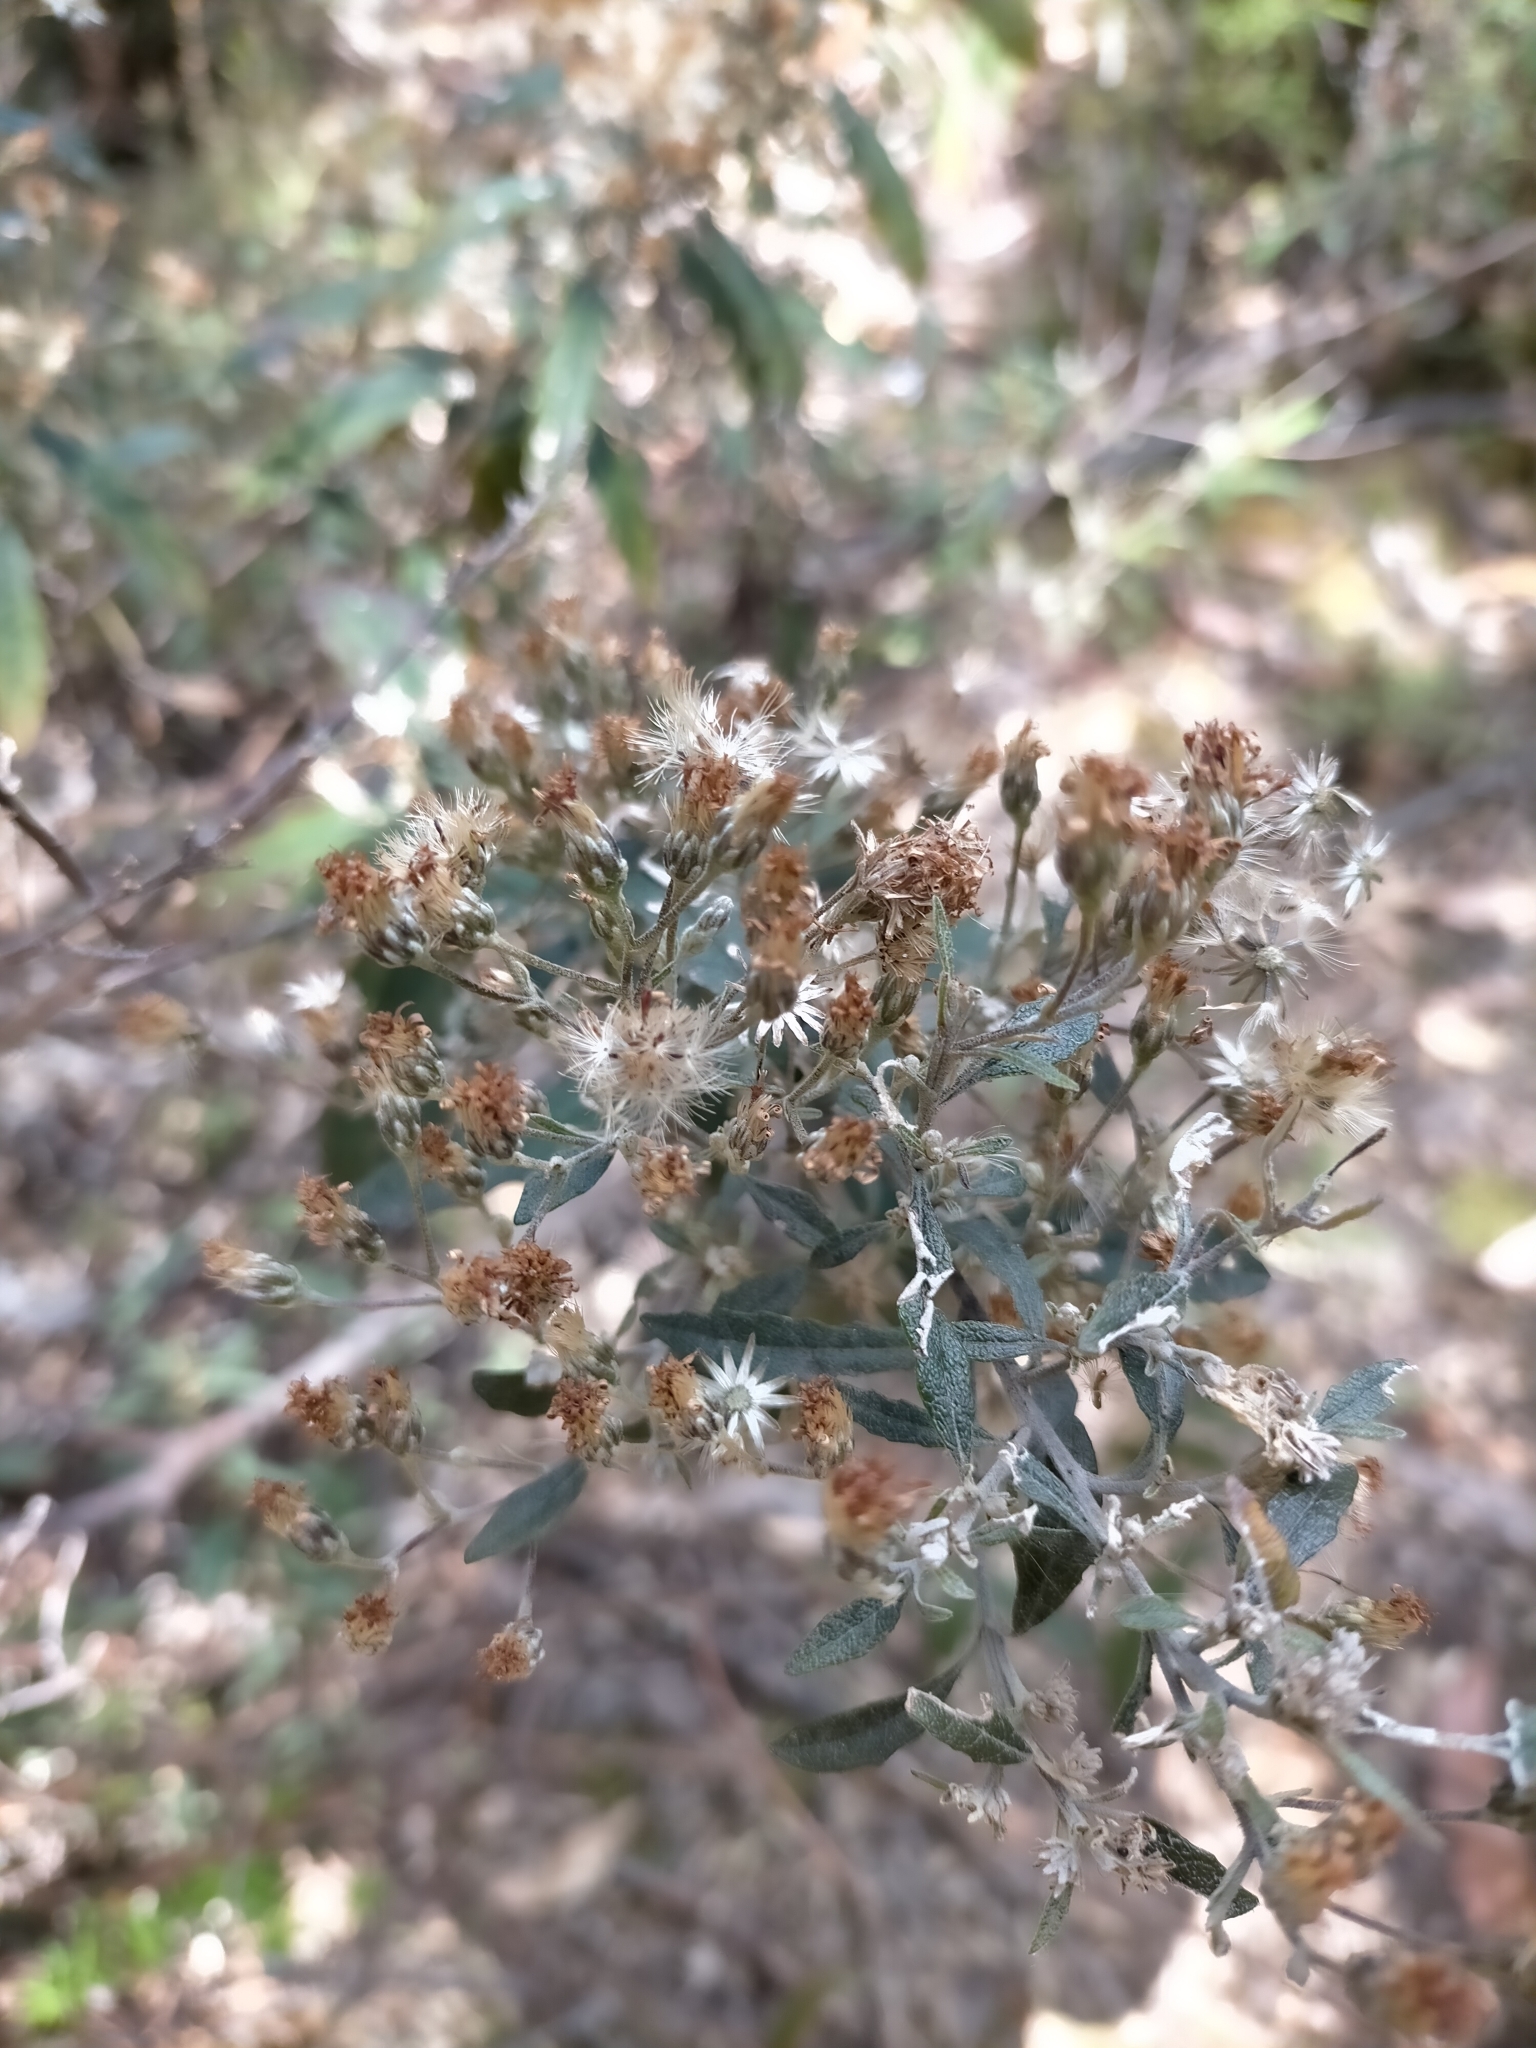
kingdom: Plantae
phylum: Tracheophyta
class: Magnoliopsida
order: Asterales
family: Asteraceae
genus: Olearia
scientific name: Olearia phlogopappa
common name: Alpine daisybush
